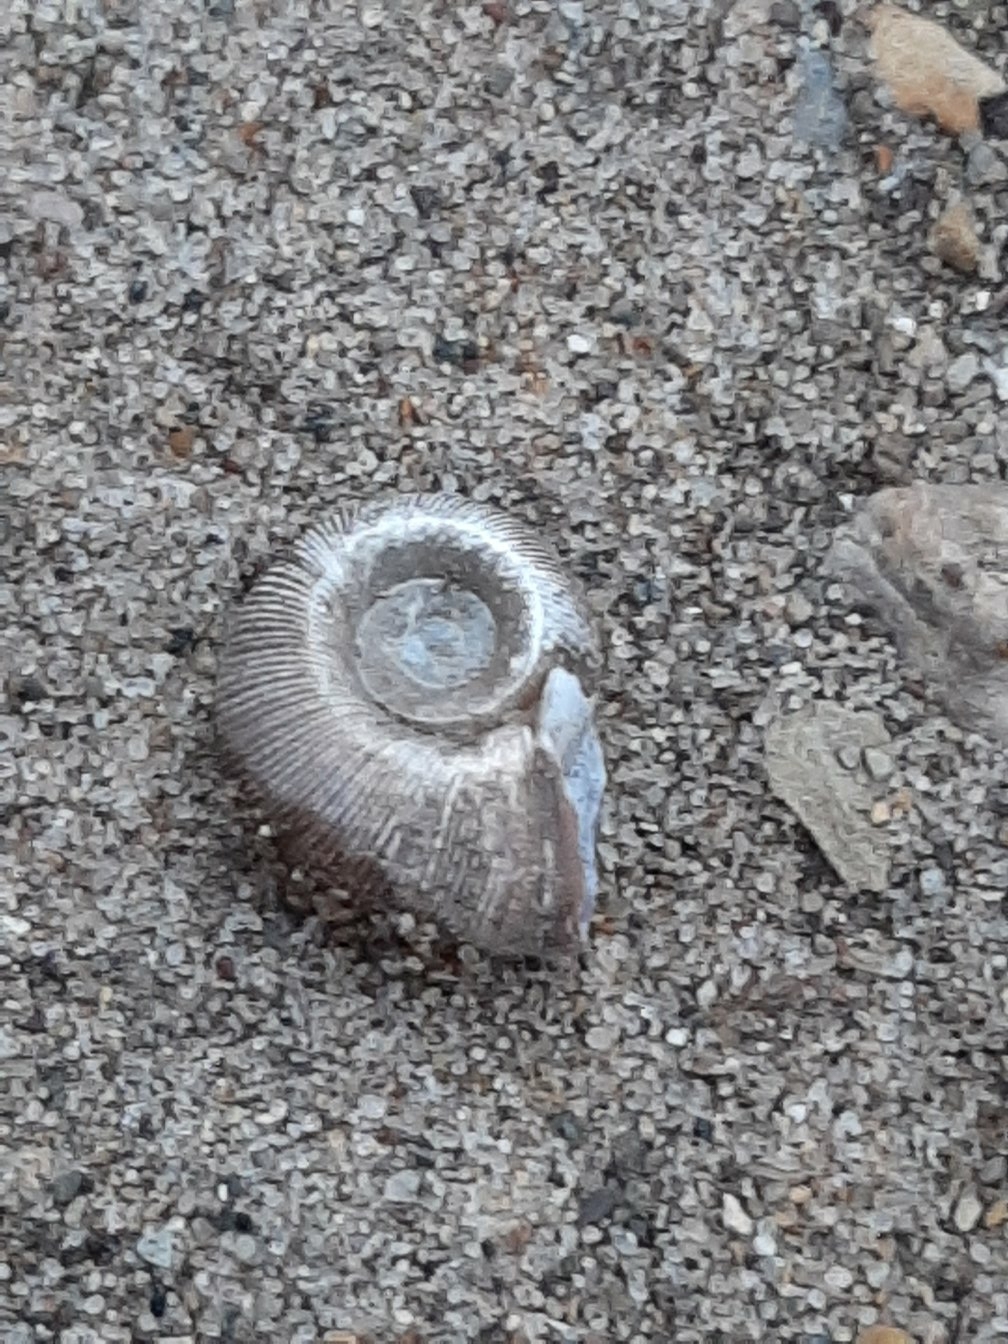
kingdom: Animalia
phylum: Mollusca
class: Gastropoda
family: Planorbidae
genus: Planorbella
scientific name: Planorbella trivolvis
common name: Marsh rams-horn
